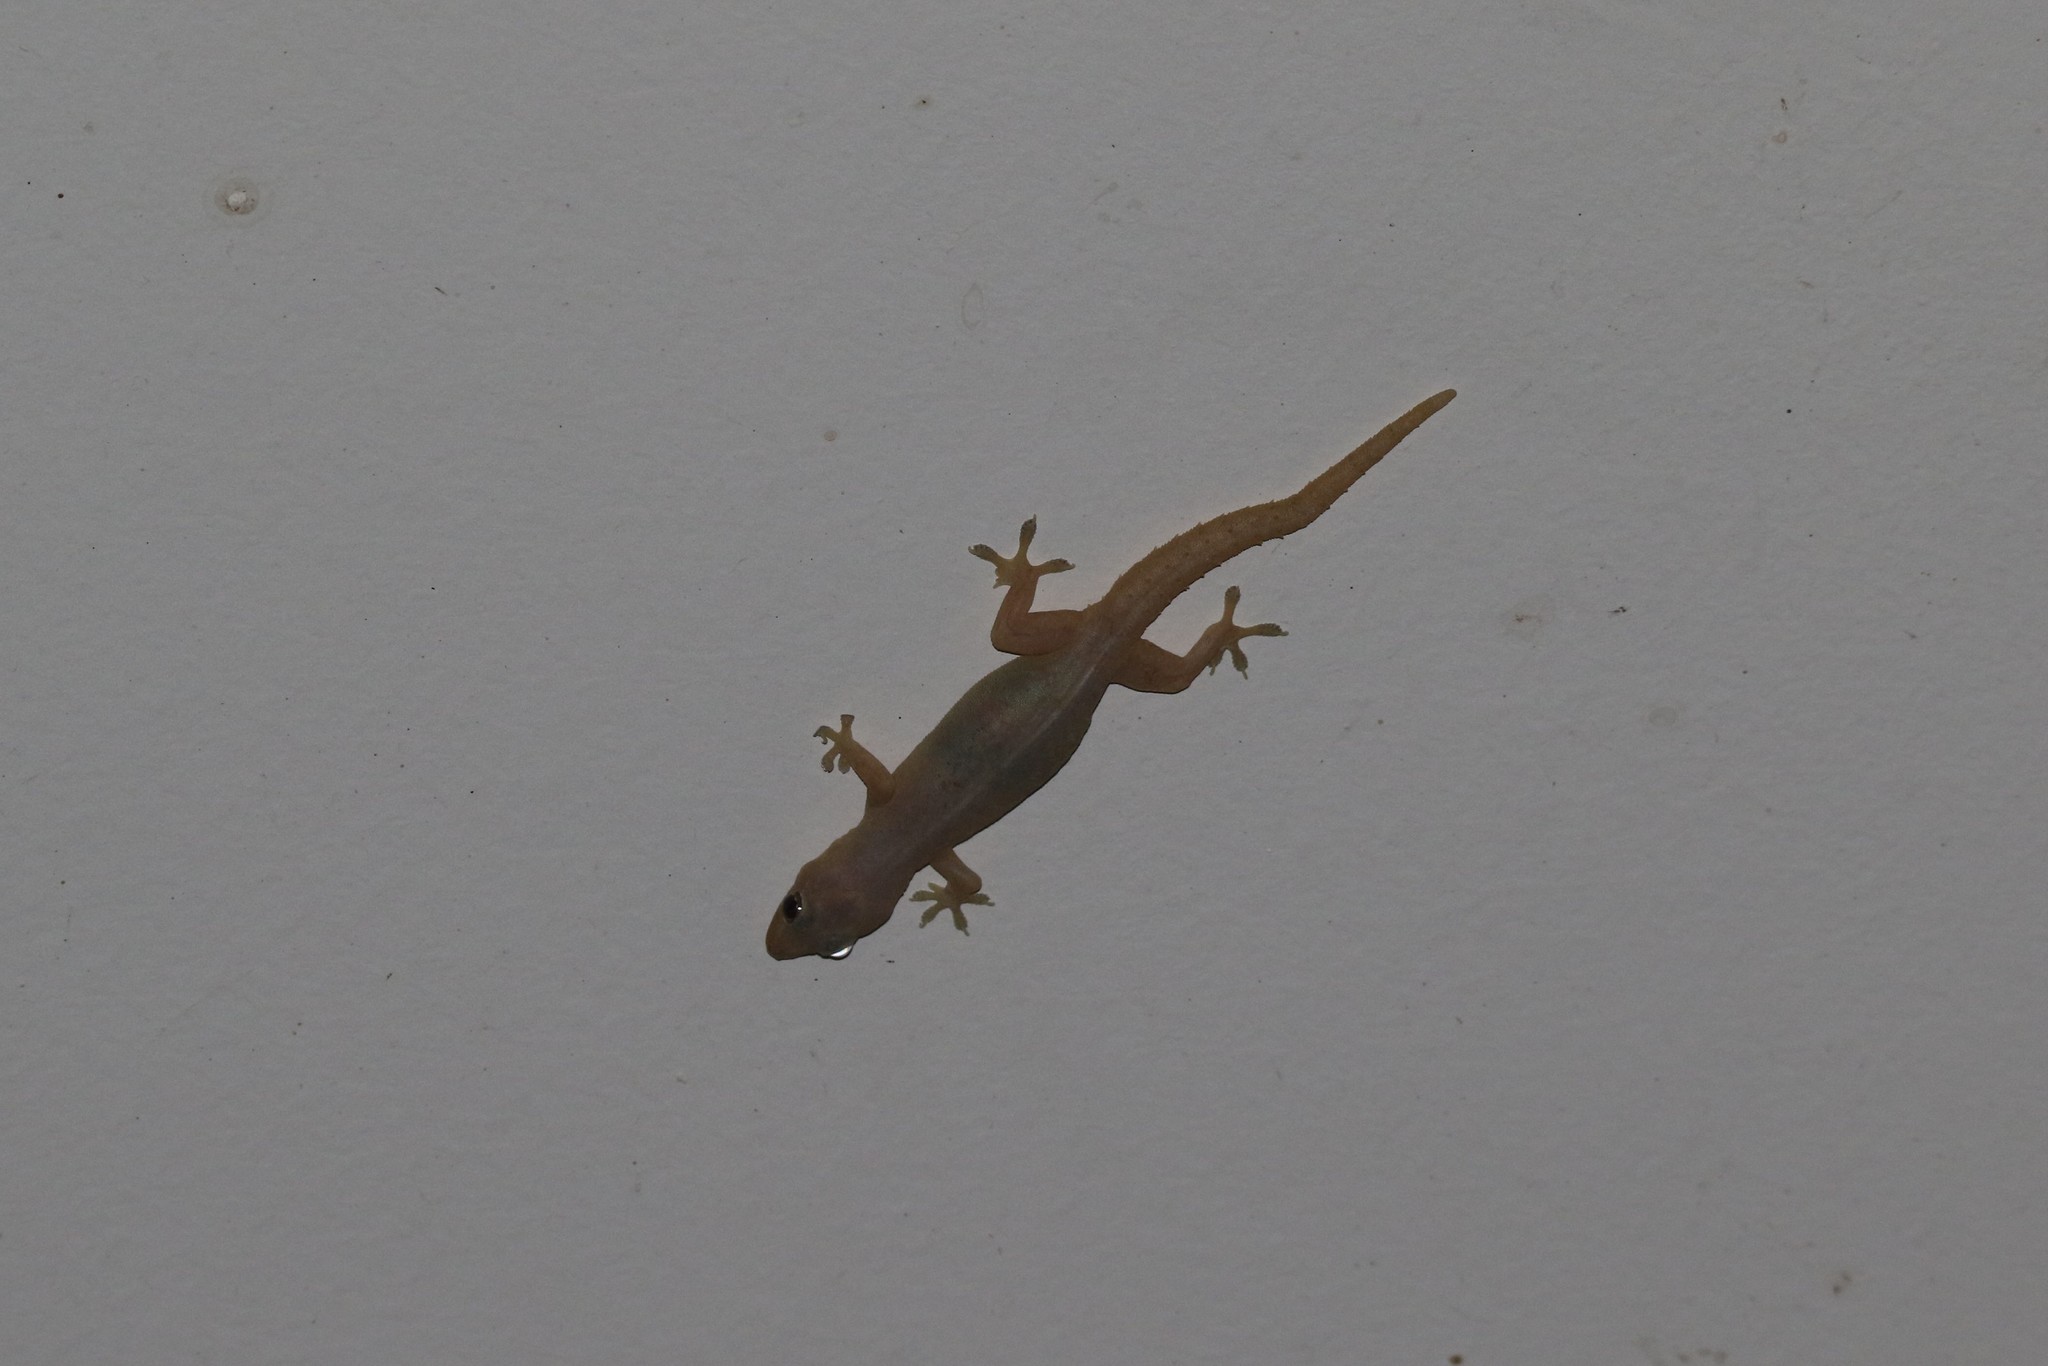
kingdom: Animalia
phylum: Chordata
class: Squamata
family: Gekkonidae
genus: Hemidactylus
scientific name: Hemidactylus frenatus
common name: Common house gecko
